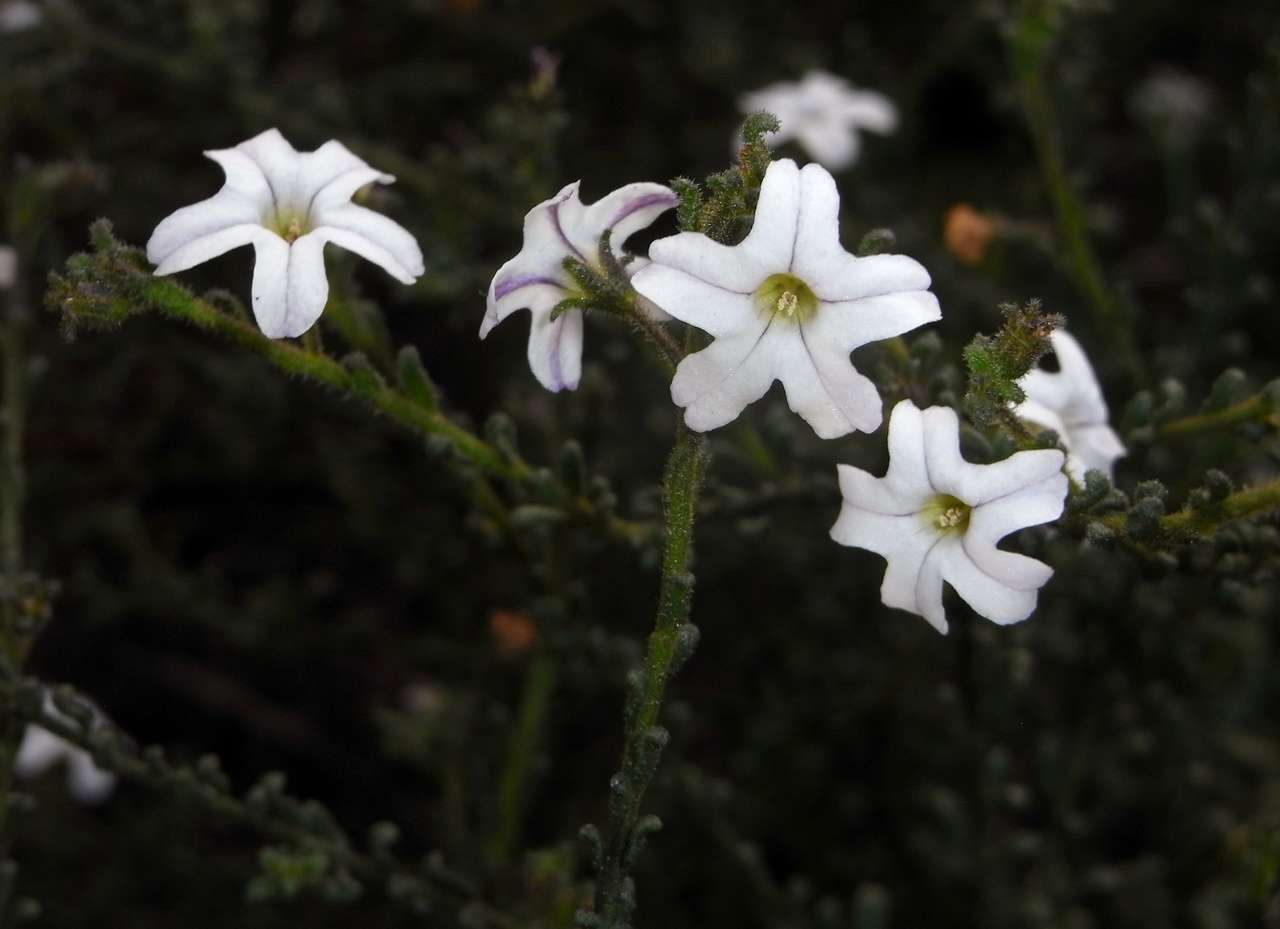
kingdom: Plantae
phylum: Tracheophyta
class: Magnoliopsida
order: Solanales
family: Solanaceae
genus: Cyphanthera
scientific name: Cyphanthera myosotidea
